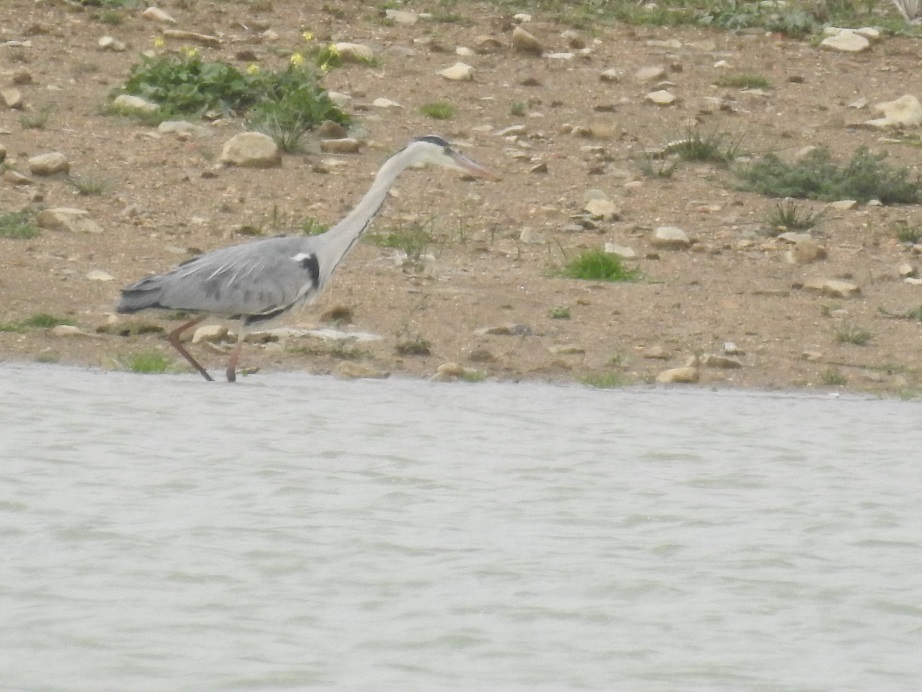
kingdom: Animalia
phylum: Chordata
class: Aves
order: Pelecaniformes
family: Ardeidae
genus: Ardea
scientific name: Ardea cinerea
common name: Grey heron
